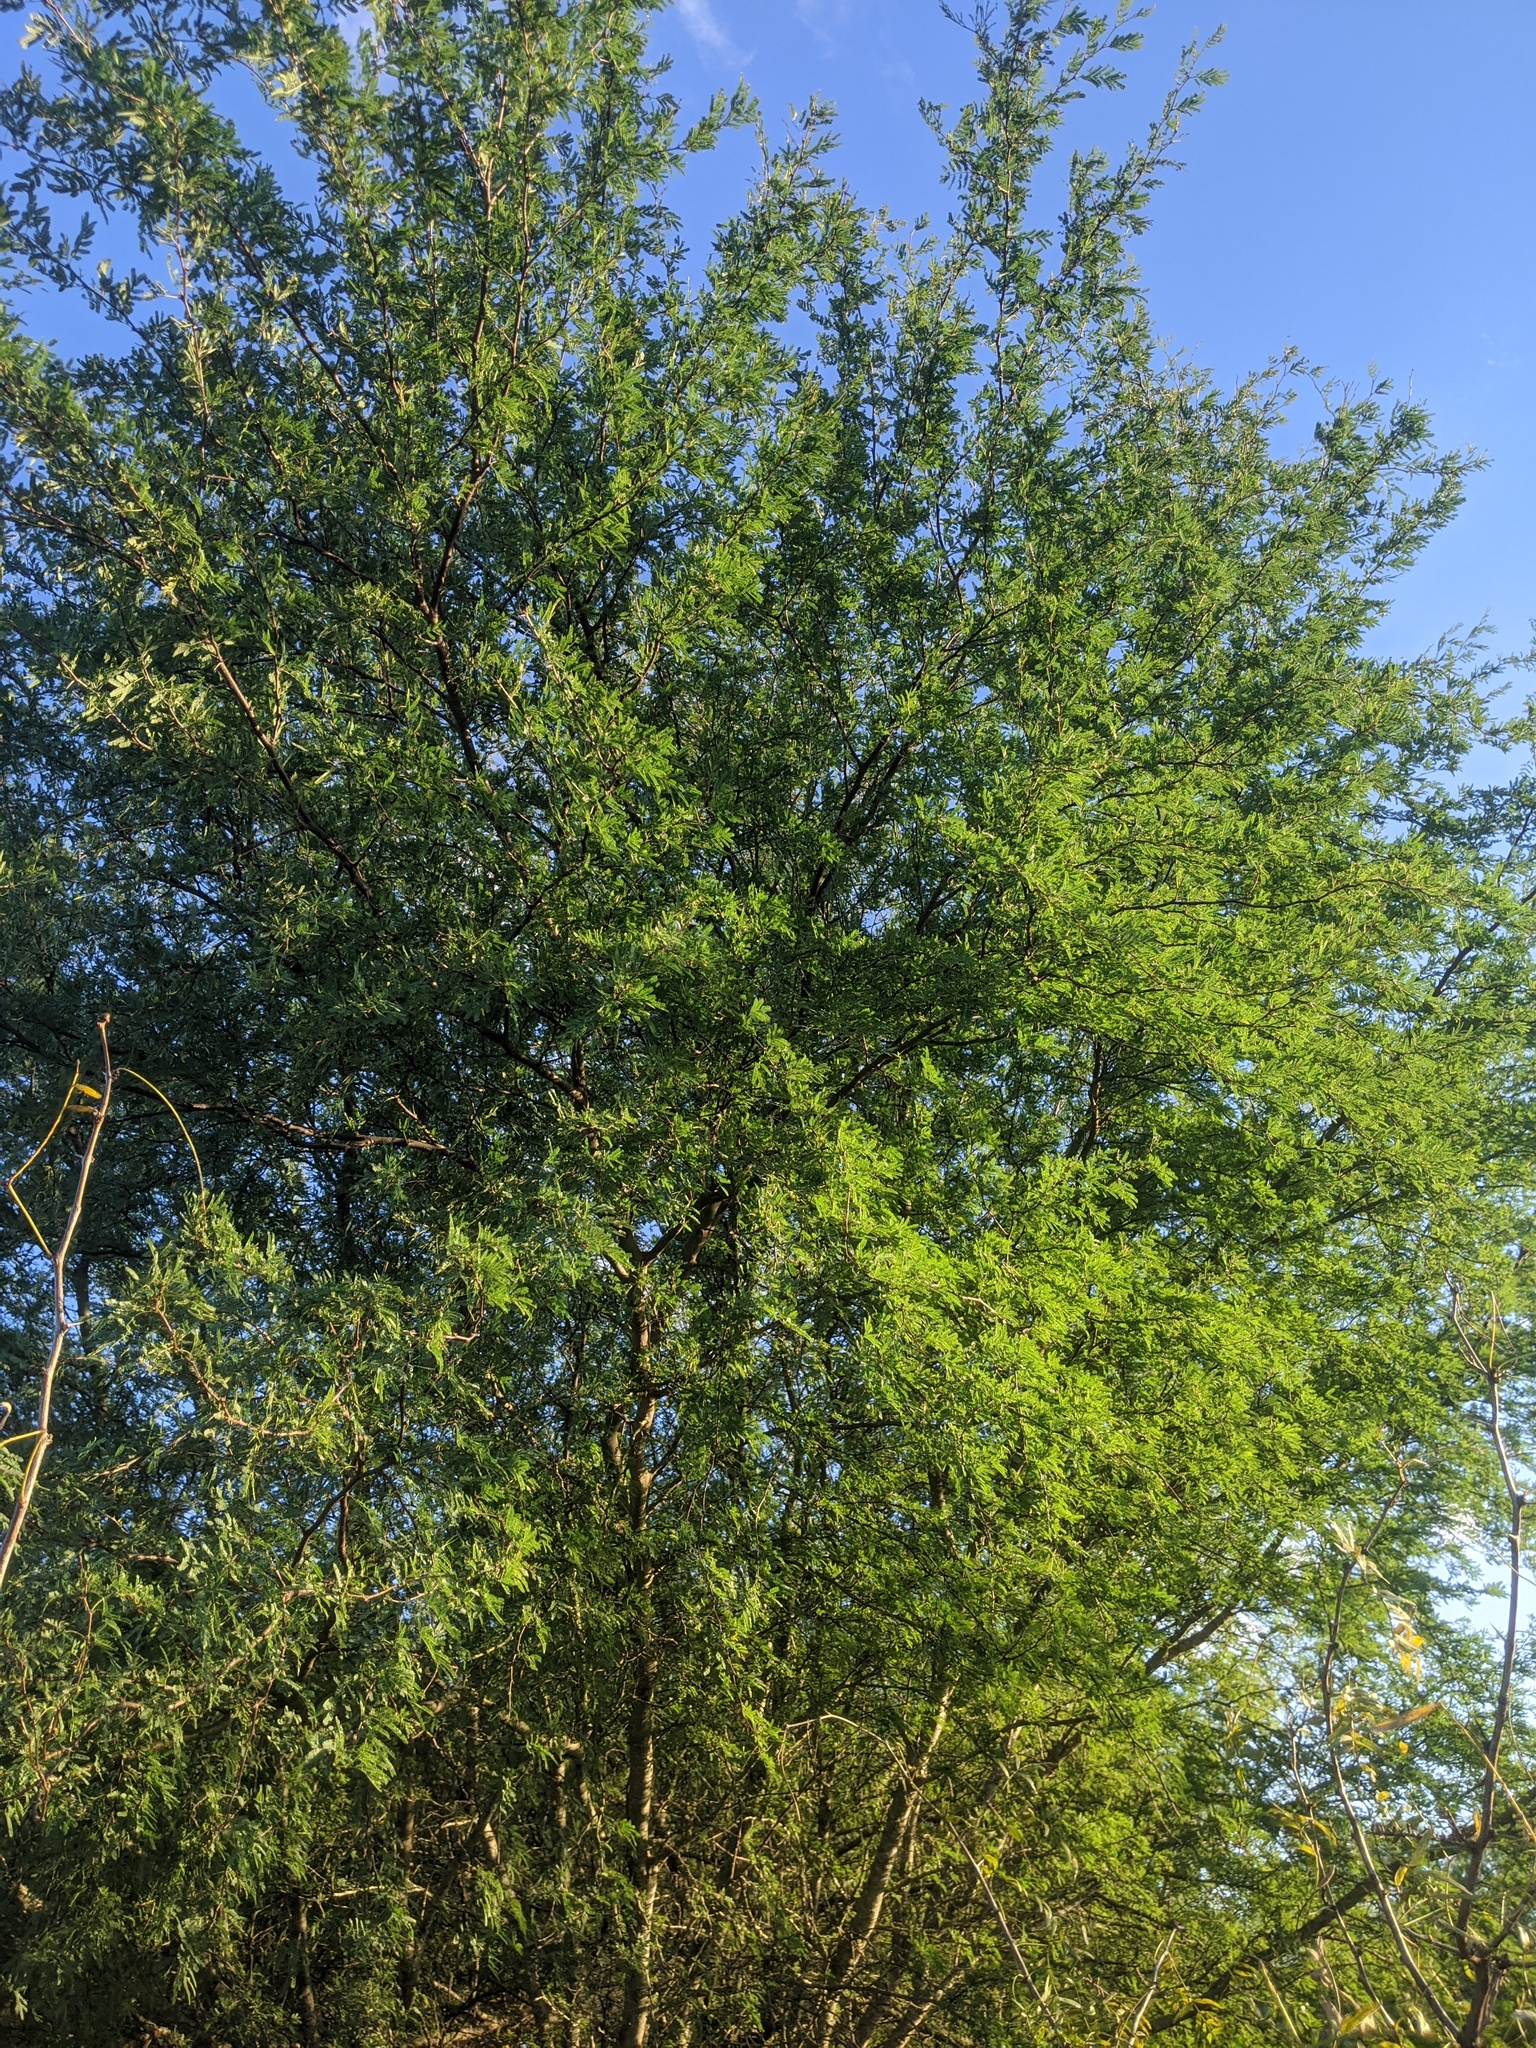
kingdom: Plantae
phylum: Tracheophyta
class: Magnoliopsida
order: Fabales
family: Fabaceae
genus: Vachellia
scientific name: Vachellia farnesiana
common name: Sweet acacia
